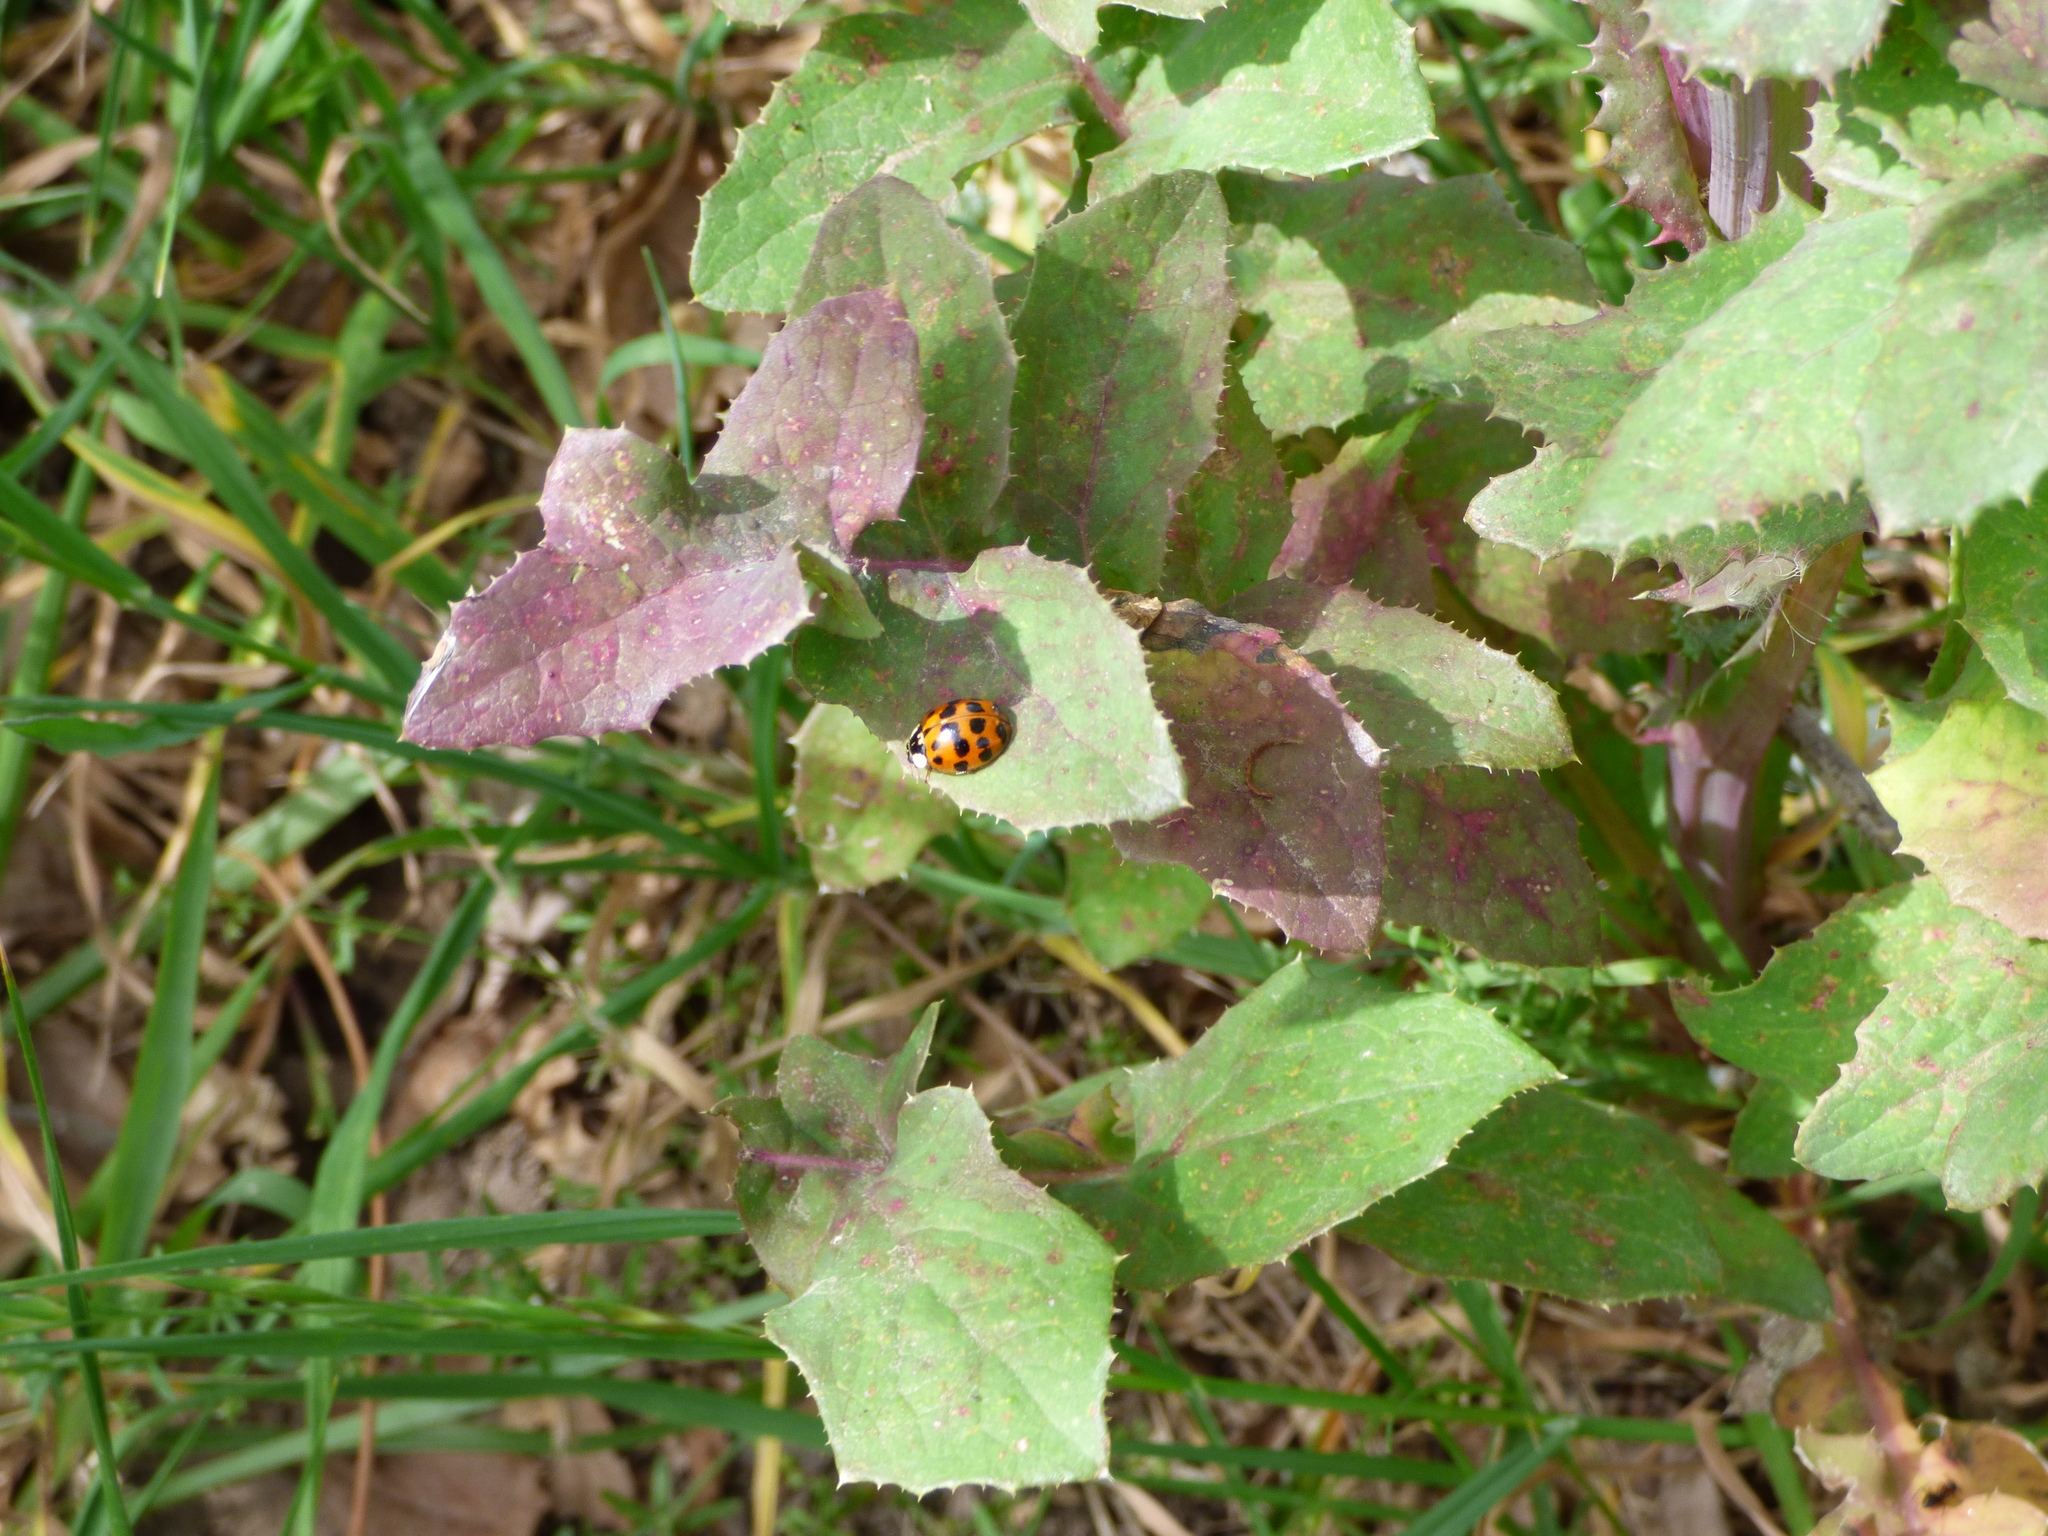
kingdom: Animalia
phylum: Arthropoda
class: Insecta
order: Coleoptera
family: Coccinellidae
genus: Harmonia
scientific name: Harmonia axyridis
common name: Harlequin ladybird
